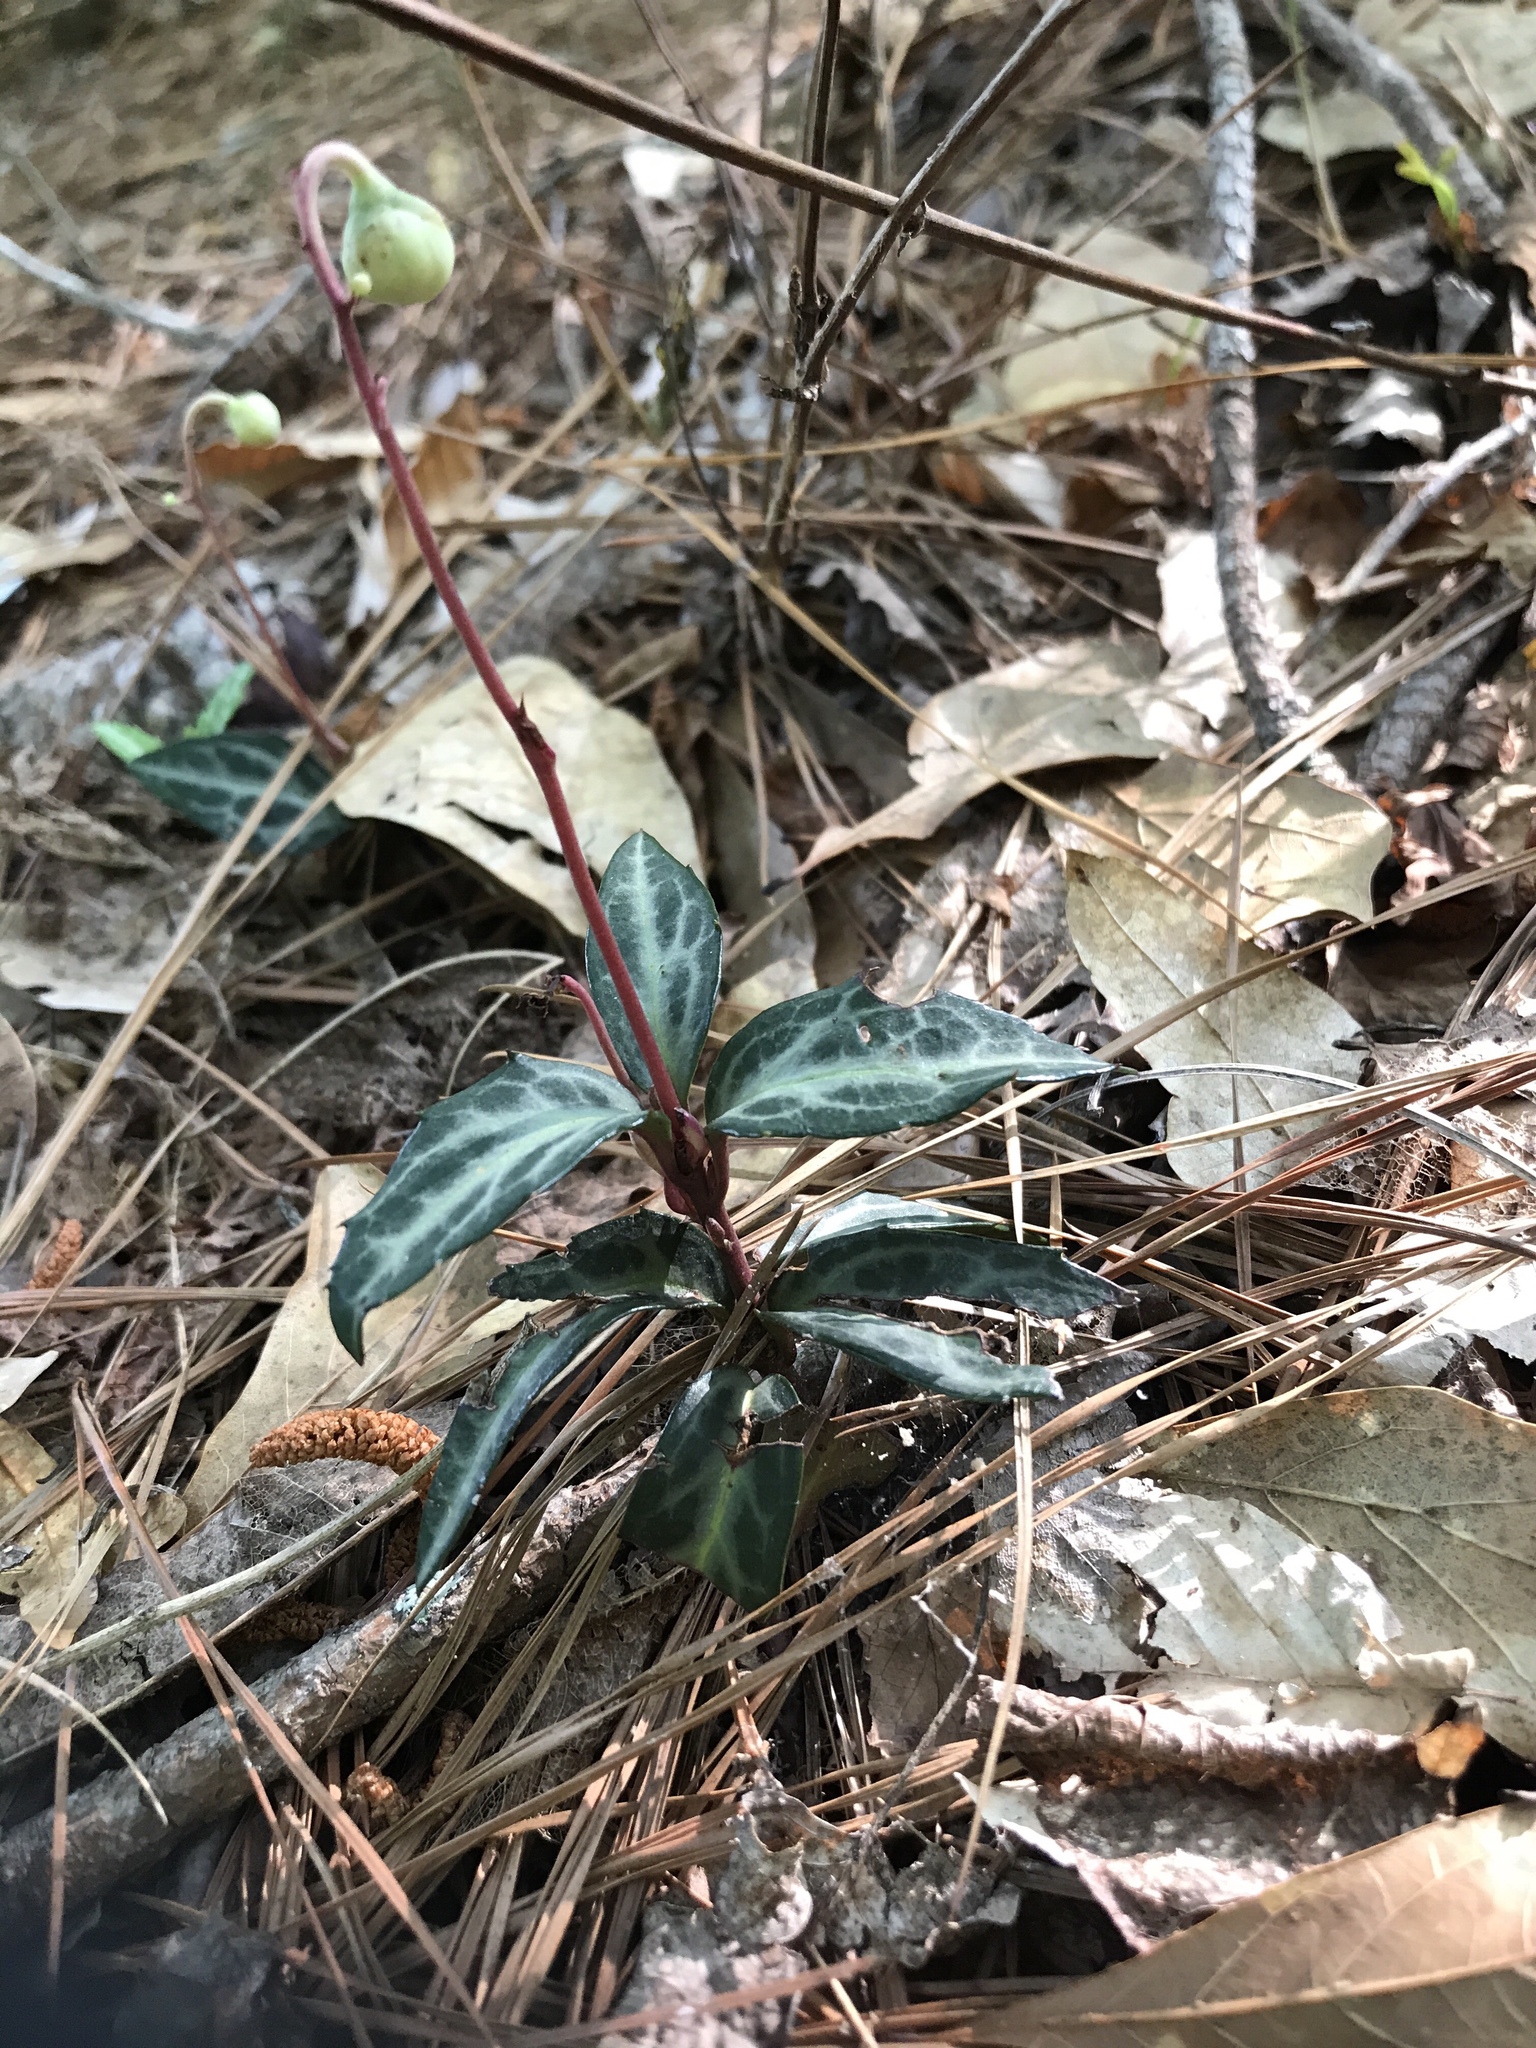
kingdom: Plantae
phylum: Tracheophyta
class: Magnoliopsida
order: Ericales
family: Ericaceae
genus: Chimaphila
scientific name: Chimaphila maculata
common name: Spotted pipsissewa
